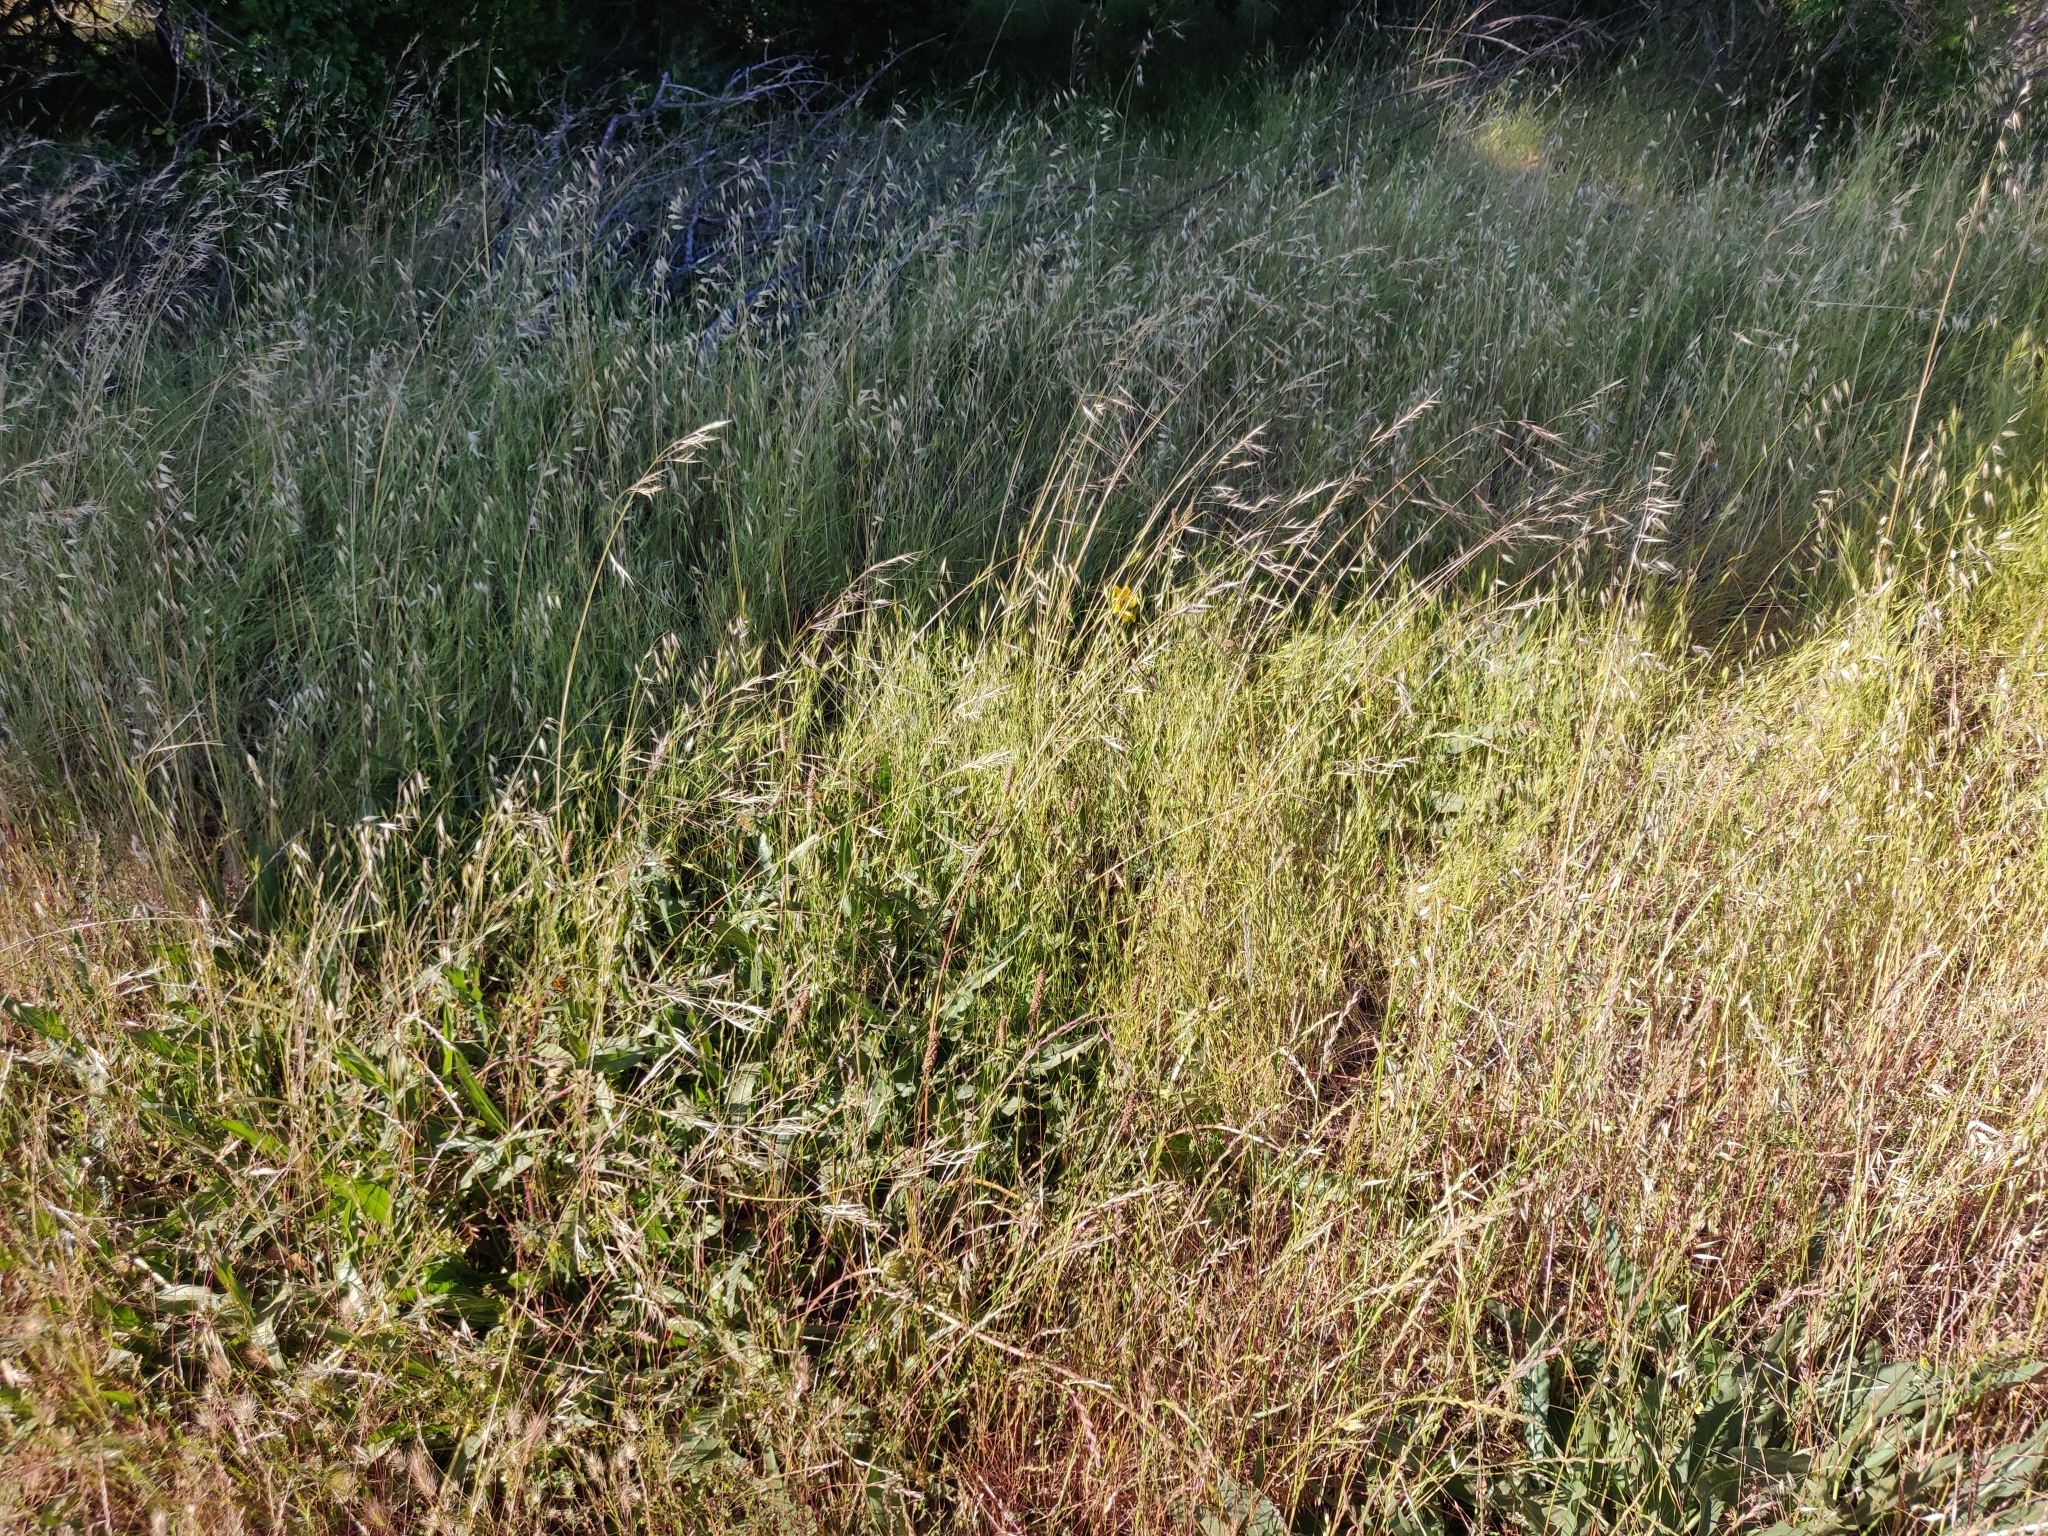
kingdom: Plantae
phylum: Tracheophyta
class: Magnoliopsida
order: Asterales
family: Asteraceae
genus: Wyethia
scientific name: Wyethia angustifolia
